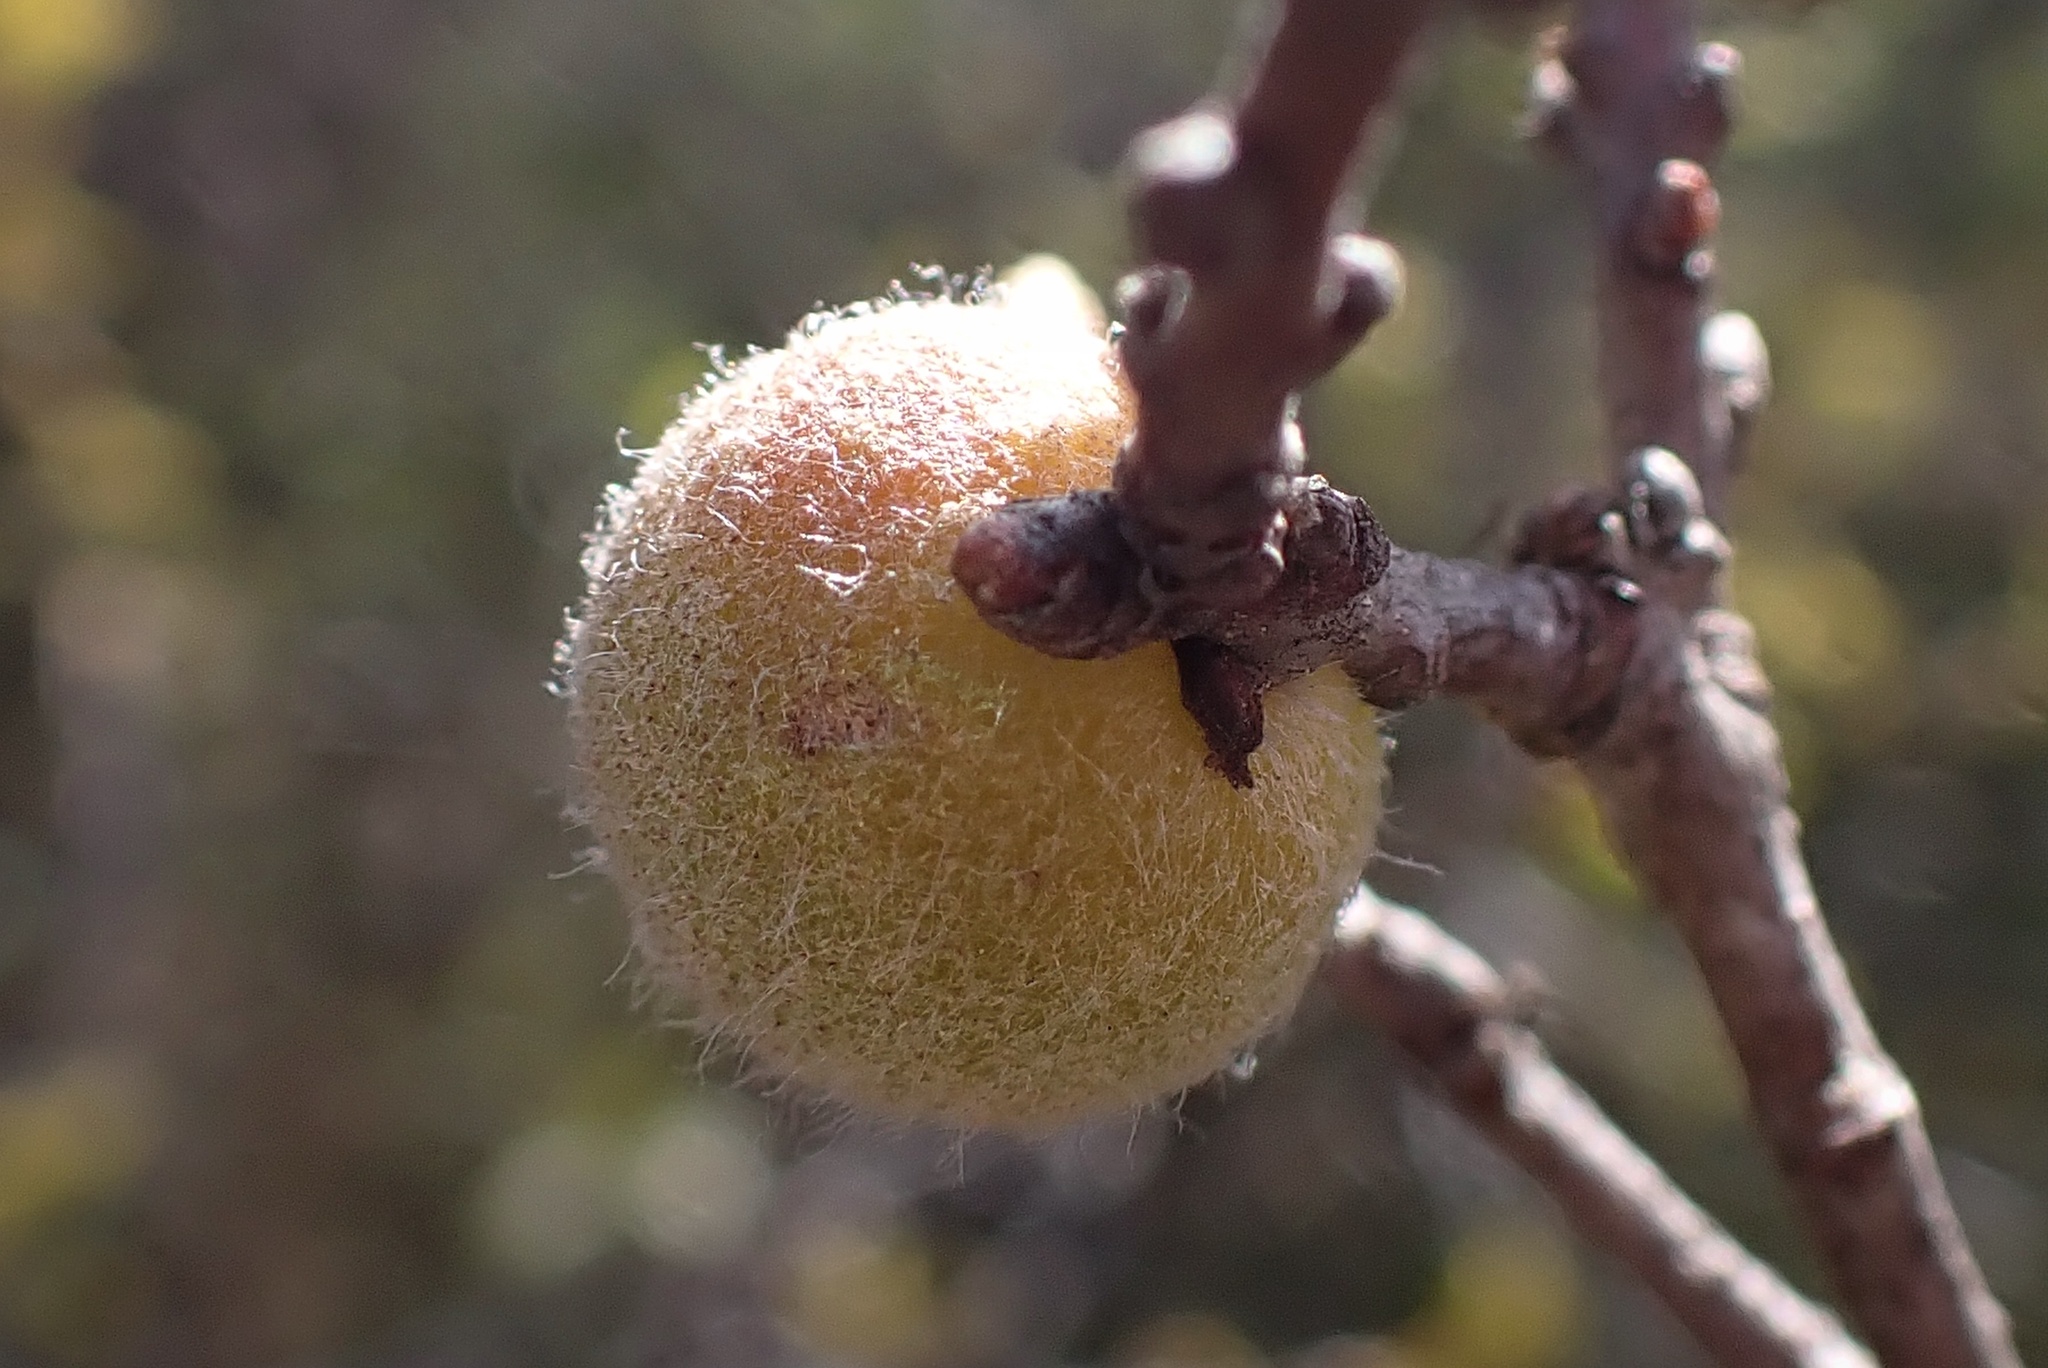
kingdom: Animalia
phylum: Arthropoda
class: Insecta
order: Hymenoptera
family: Cynipidae
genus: Burnettweldia
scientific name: Burnettweldia
